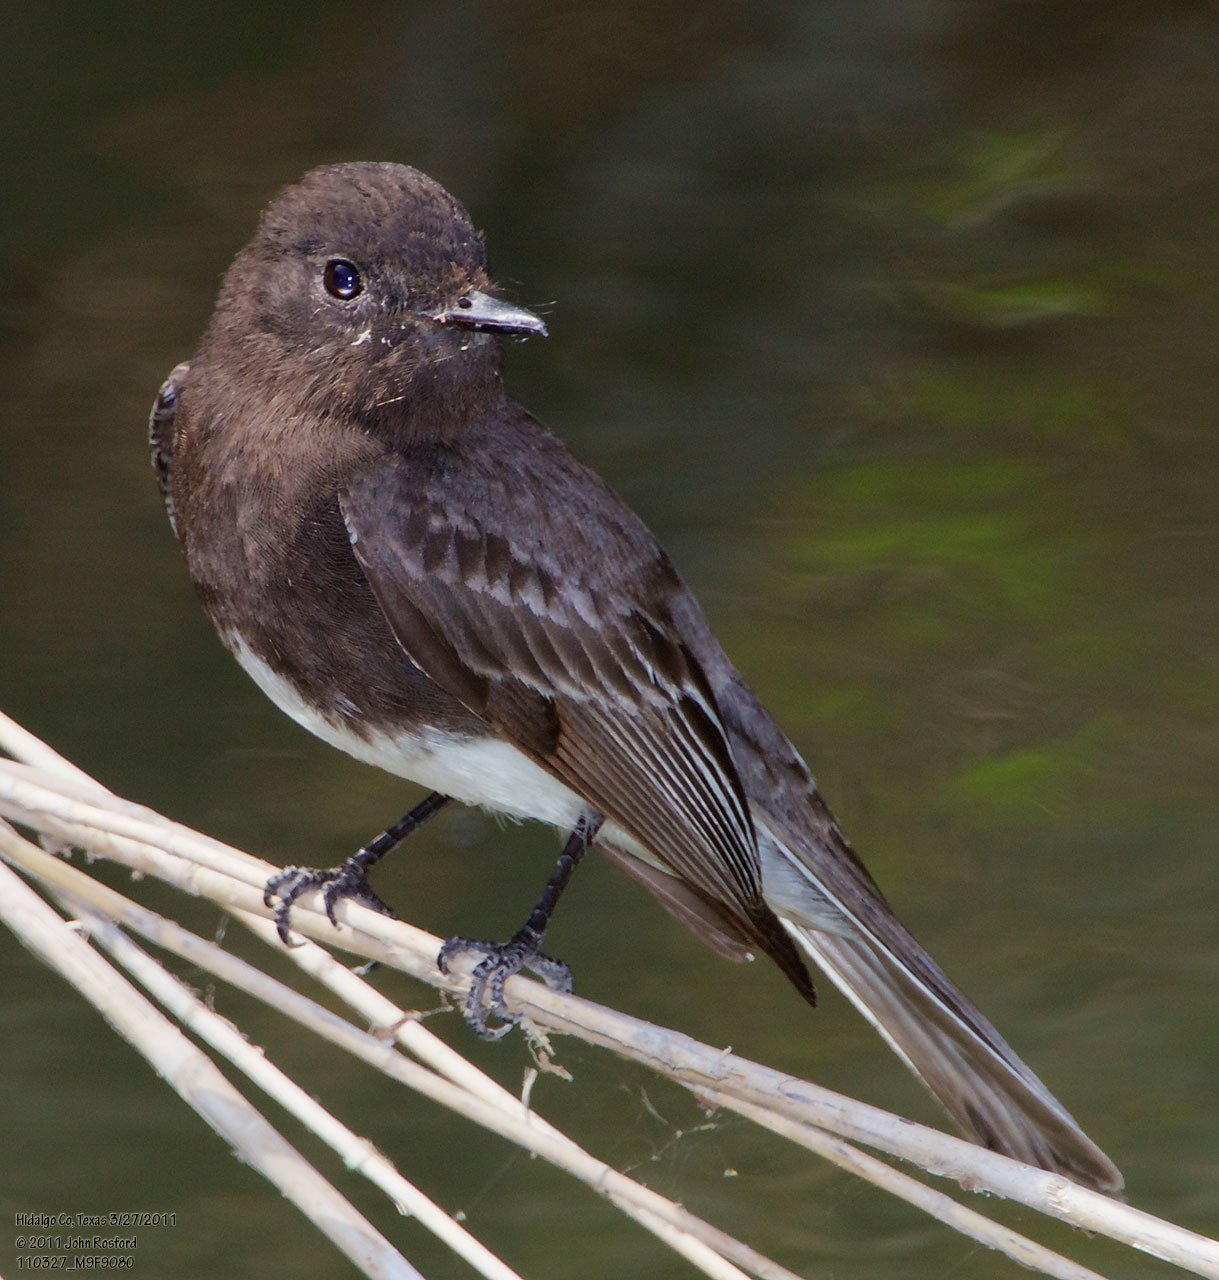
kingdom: Animalia
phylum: Chordata
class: Aves
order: Passeriformes
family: Tyrannidae
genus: Sayornis
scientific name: Sayornis nigricans
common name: Black phoebe
